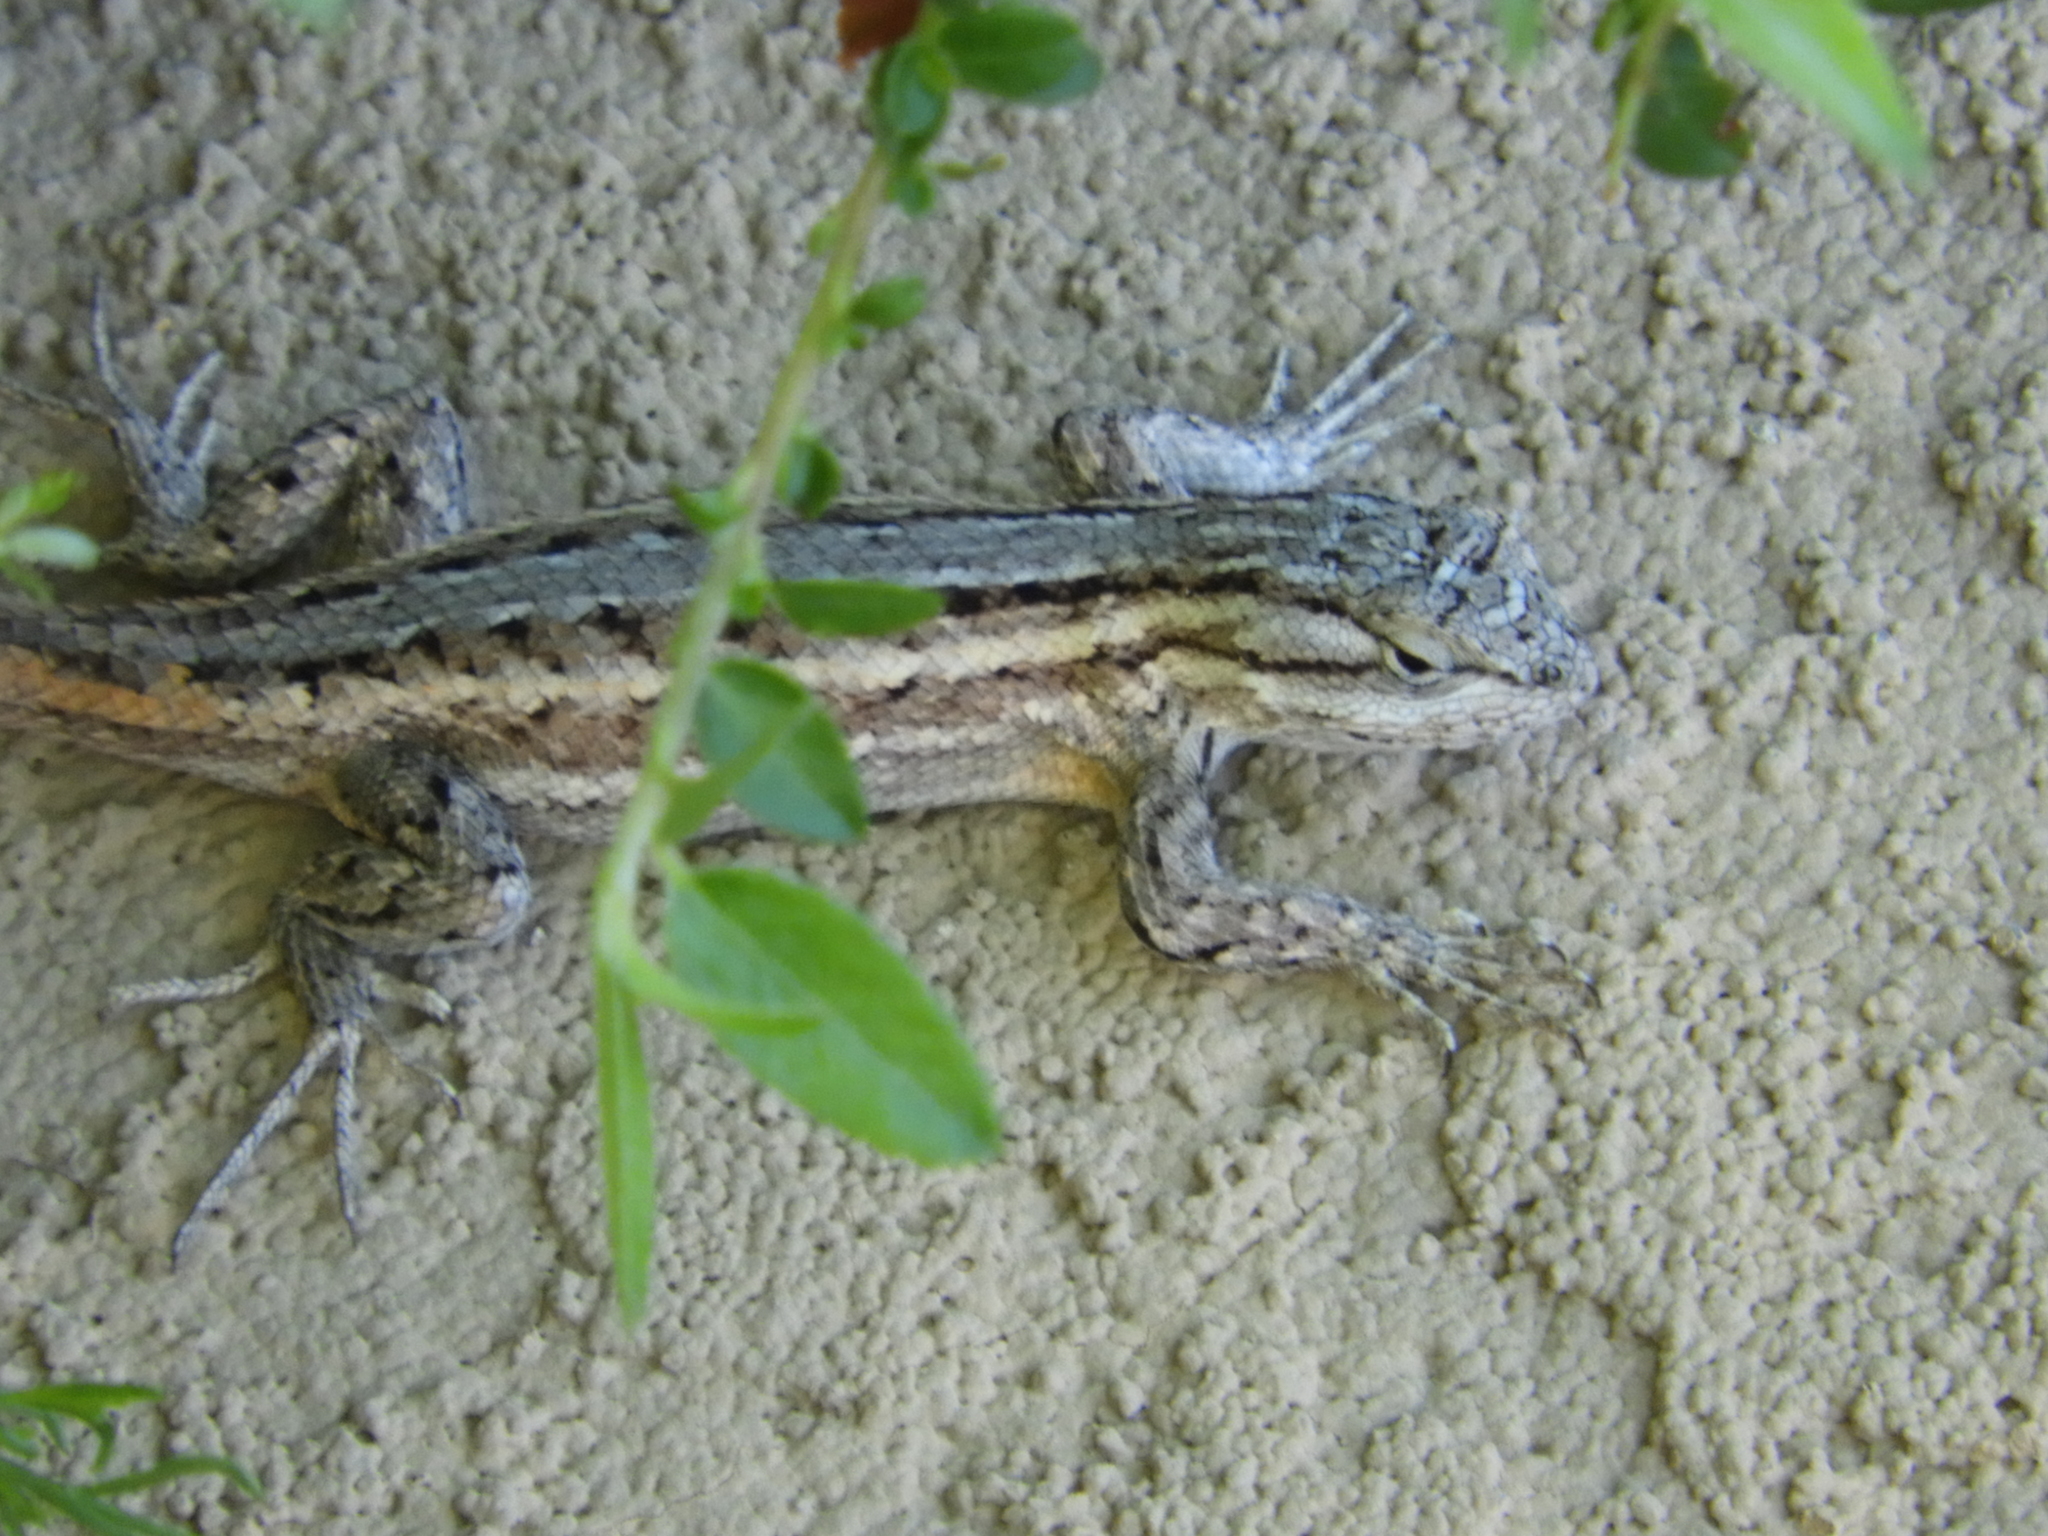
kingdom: Animalia
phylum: Chordata
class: Squamata
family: Phrynosomatidae
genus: Sceloporus
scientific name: Sceloporus cowlesi
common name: White sands prairie lizard
